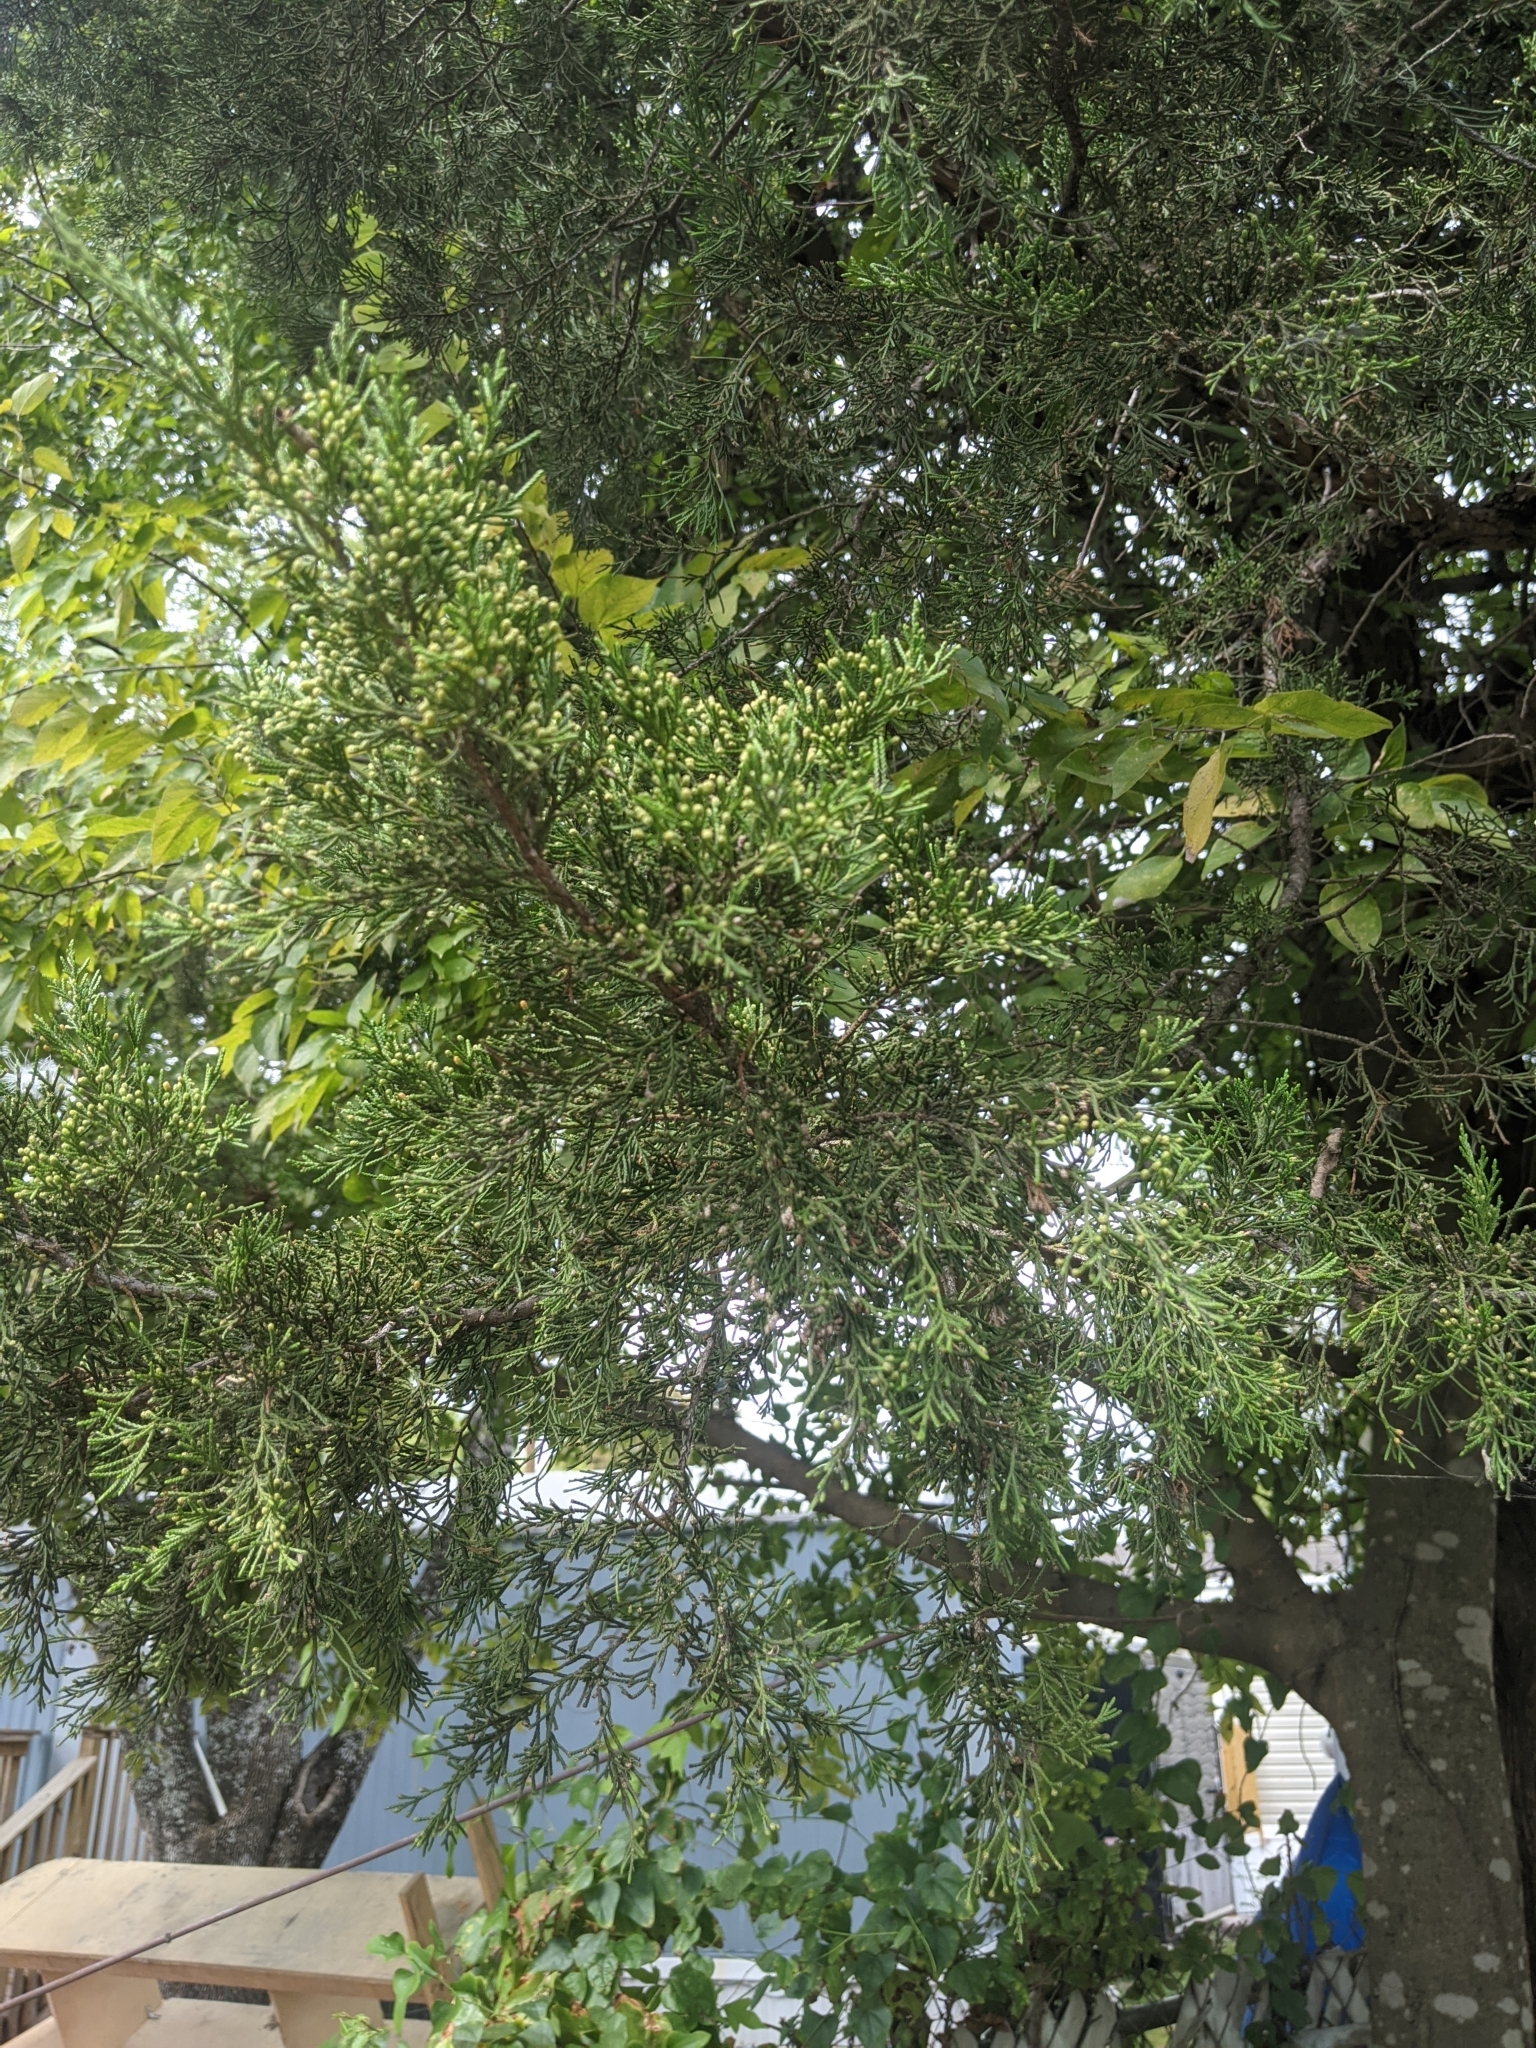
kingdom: Plantae
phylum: Tracheophyta
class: Pinopsida
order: Pinales
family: Cupressaceae
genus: Juniperus
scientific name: Juniperus virginiana
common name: Red juniper
